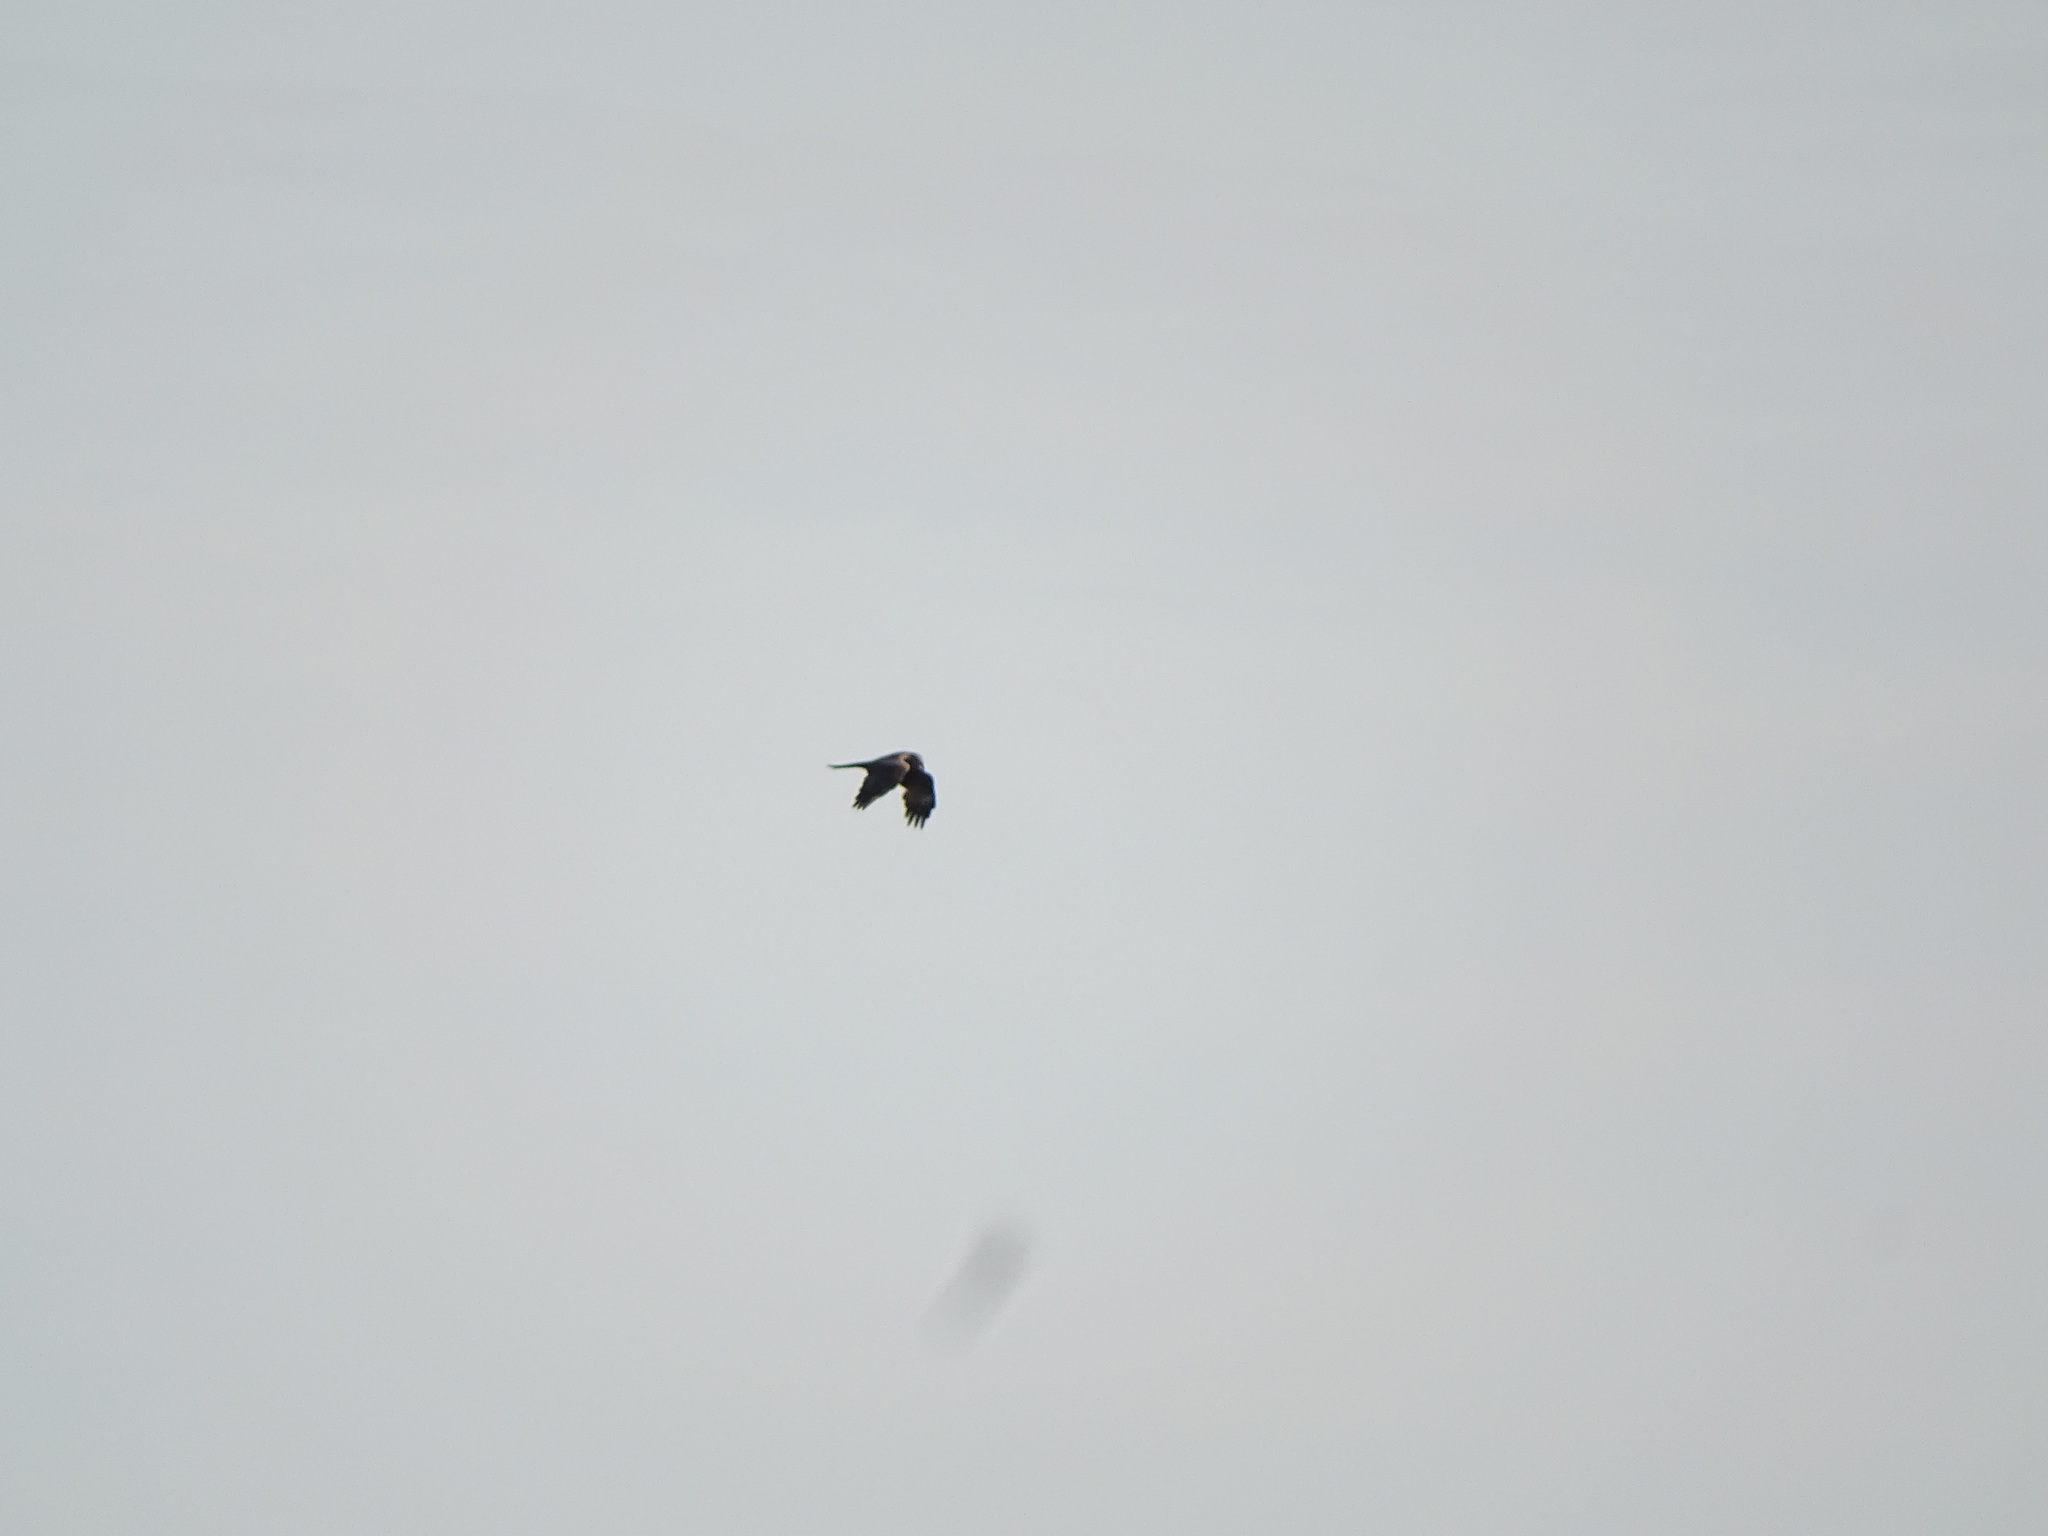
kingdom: Animalia
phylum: Chordata
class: Aves
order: Accipitriformes
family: Accipitridae
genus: Milvus
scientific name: Milvus migrans
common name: Black kite
